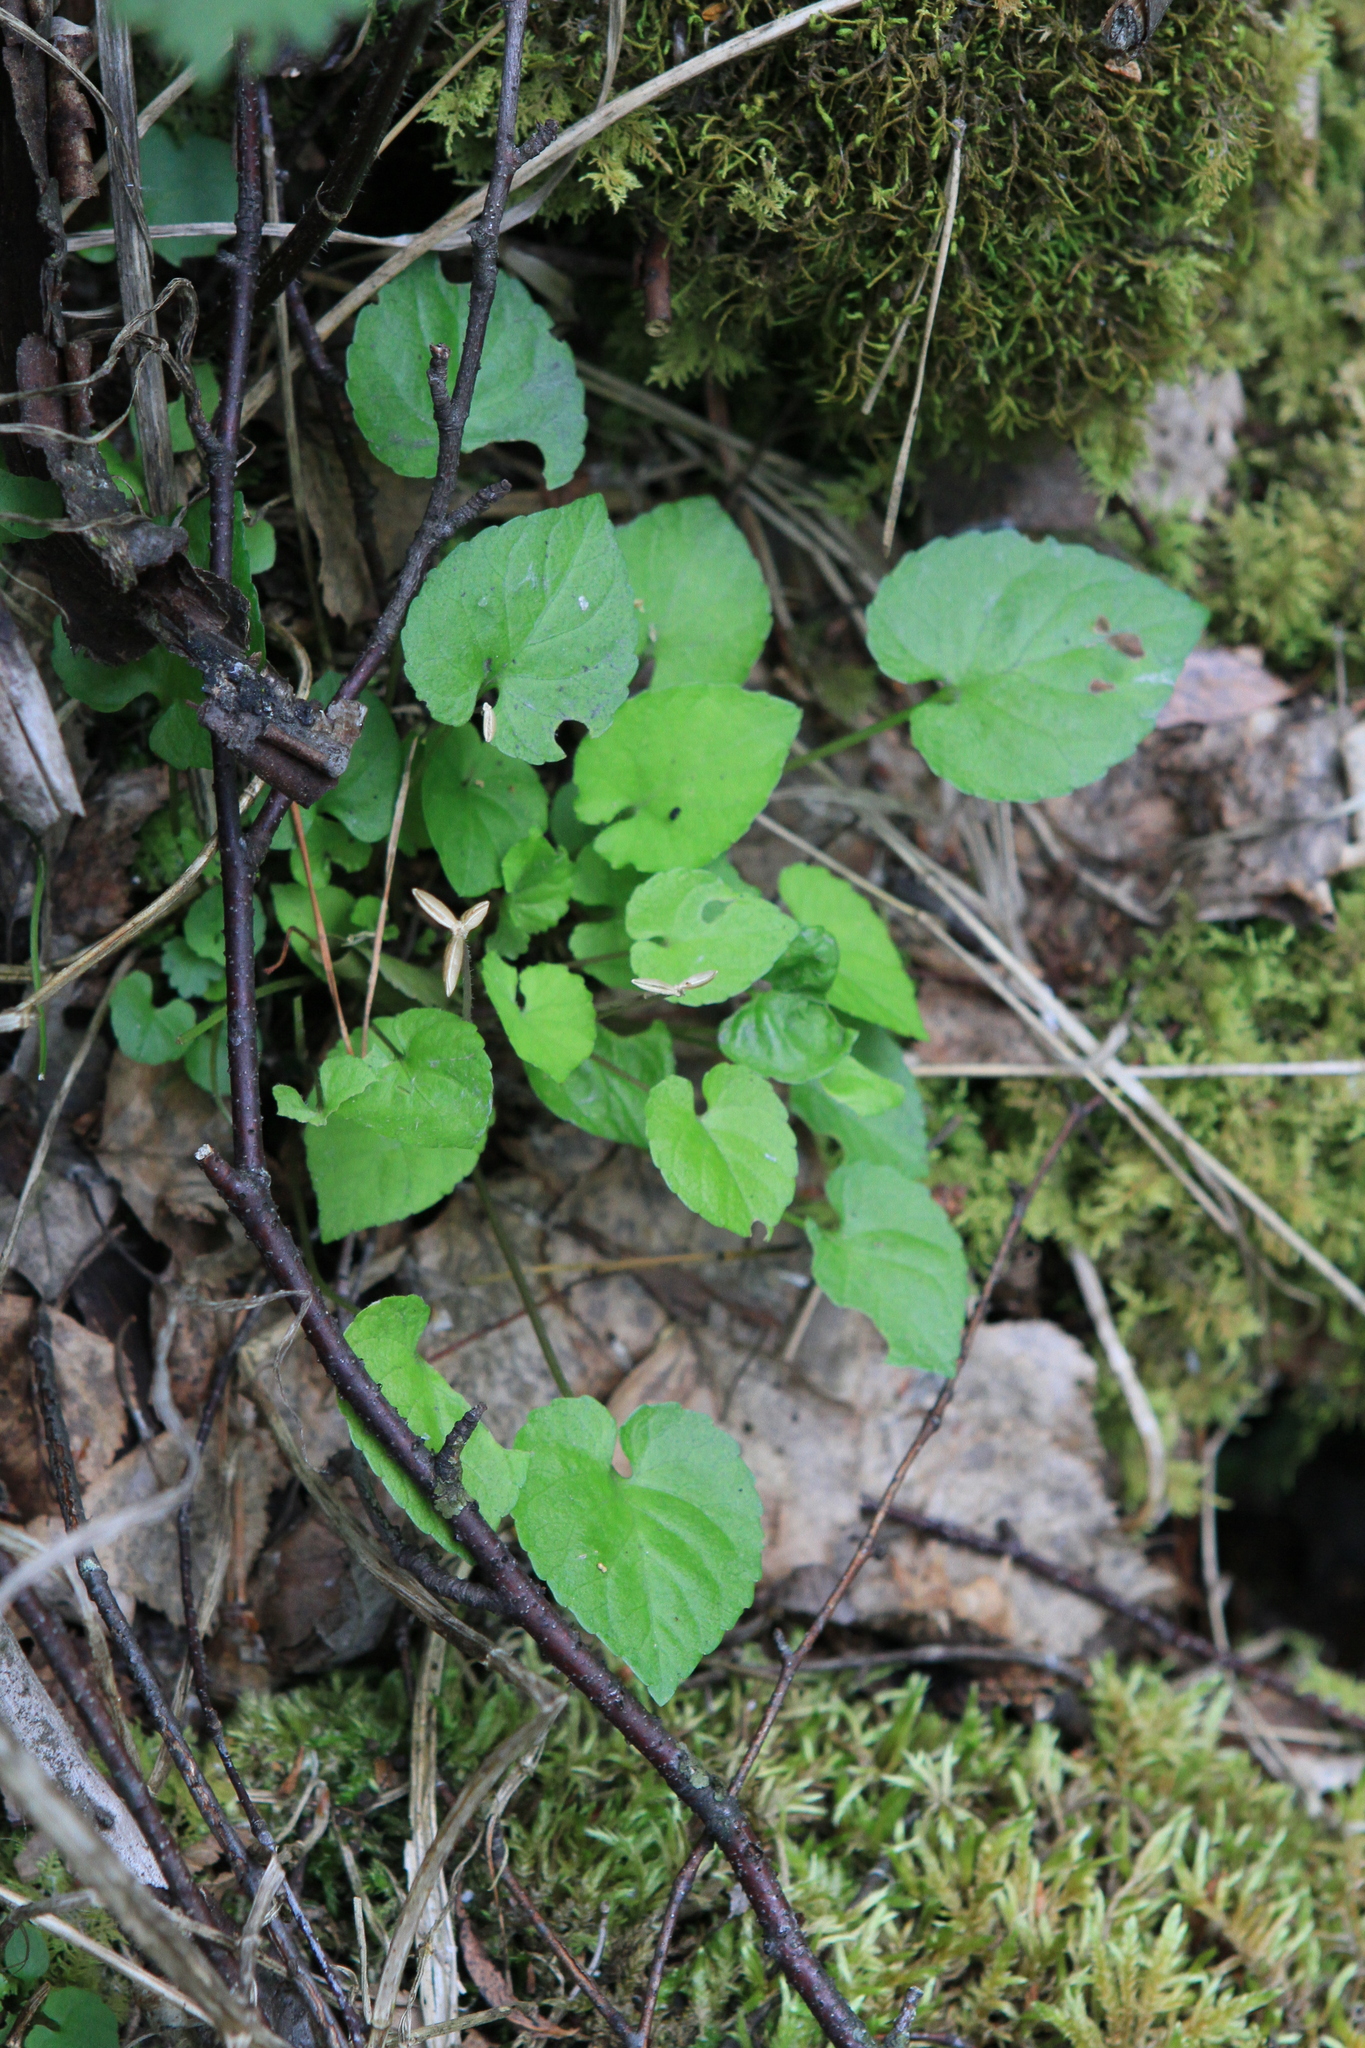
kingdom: Plantae
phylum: Tracheophyta
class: Magnoliopsida
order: Malpighiales
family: Violaceae
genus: Viola
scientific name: Viola selkirkii
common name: Selkirk's violet
